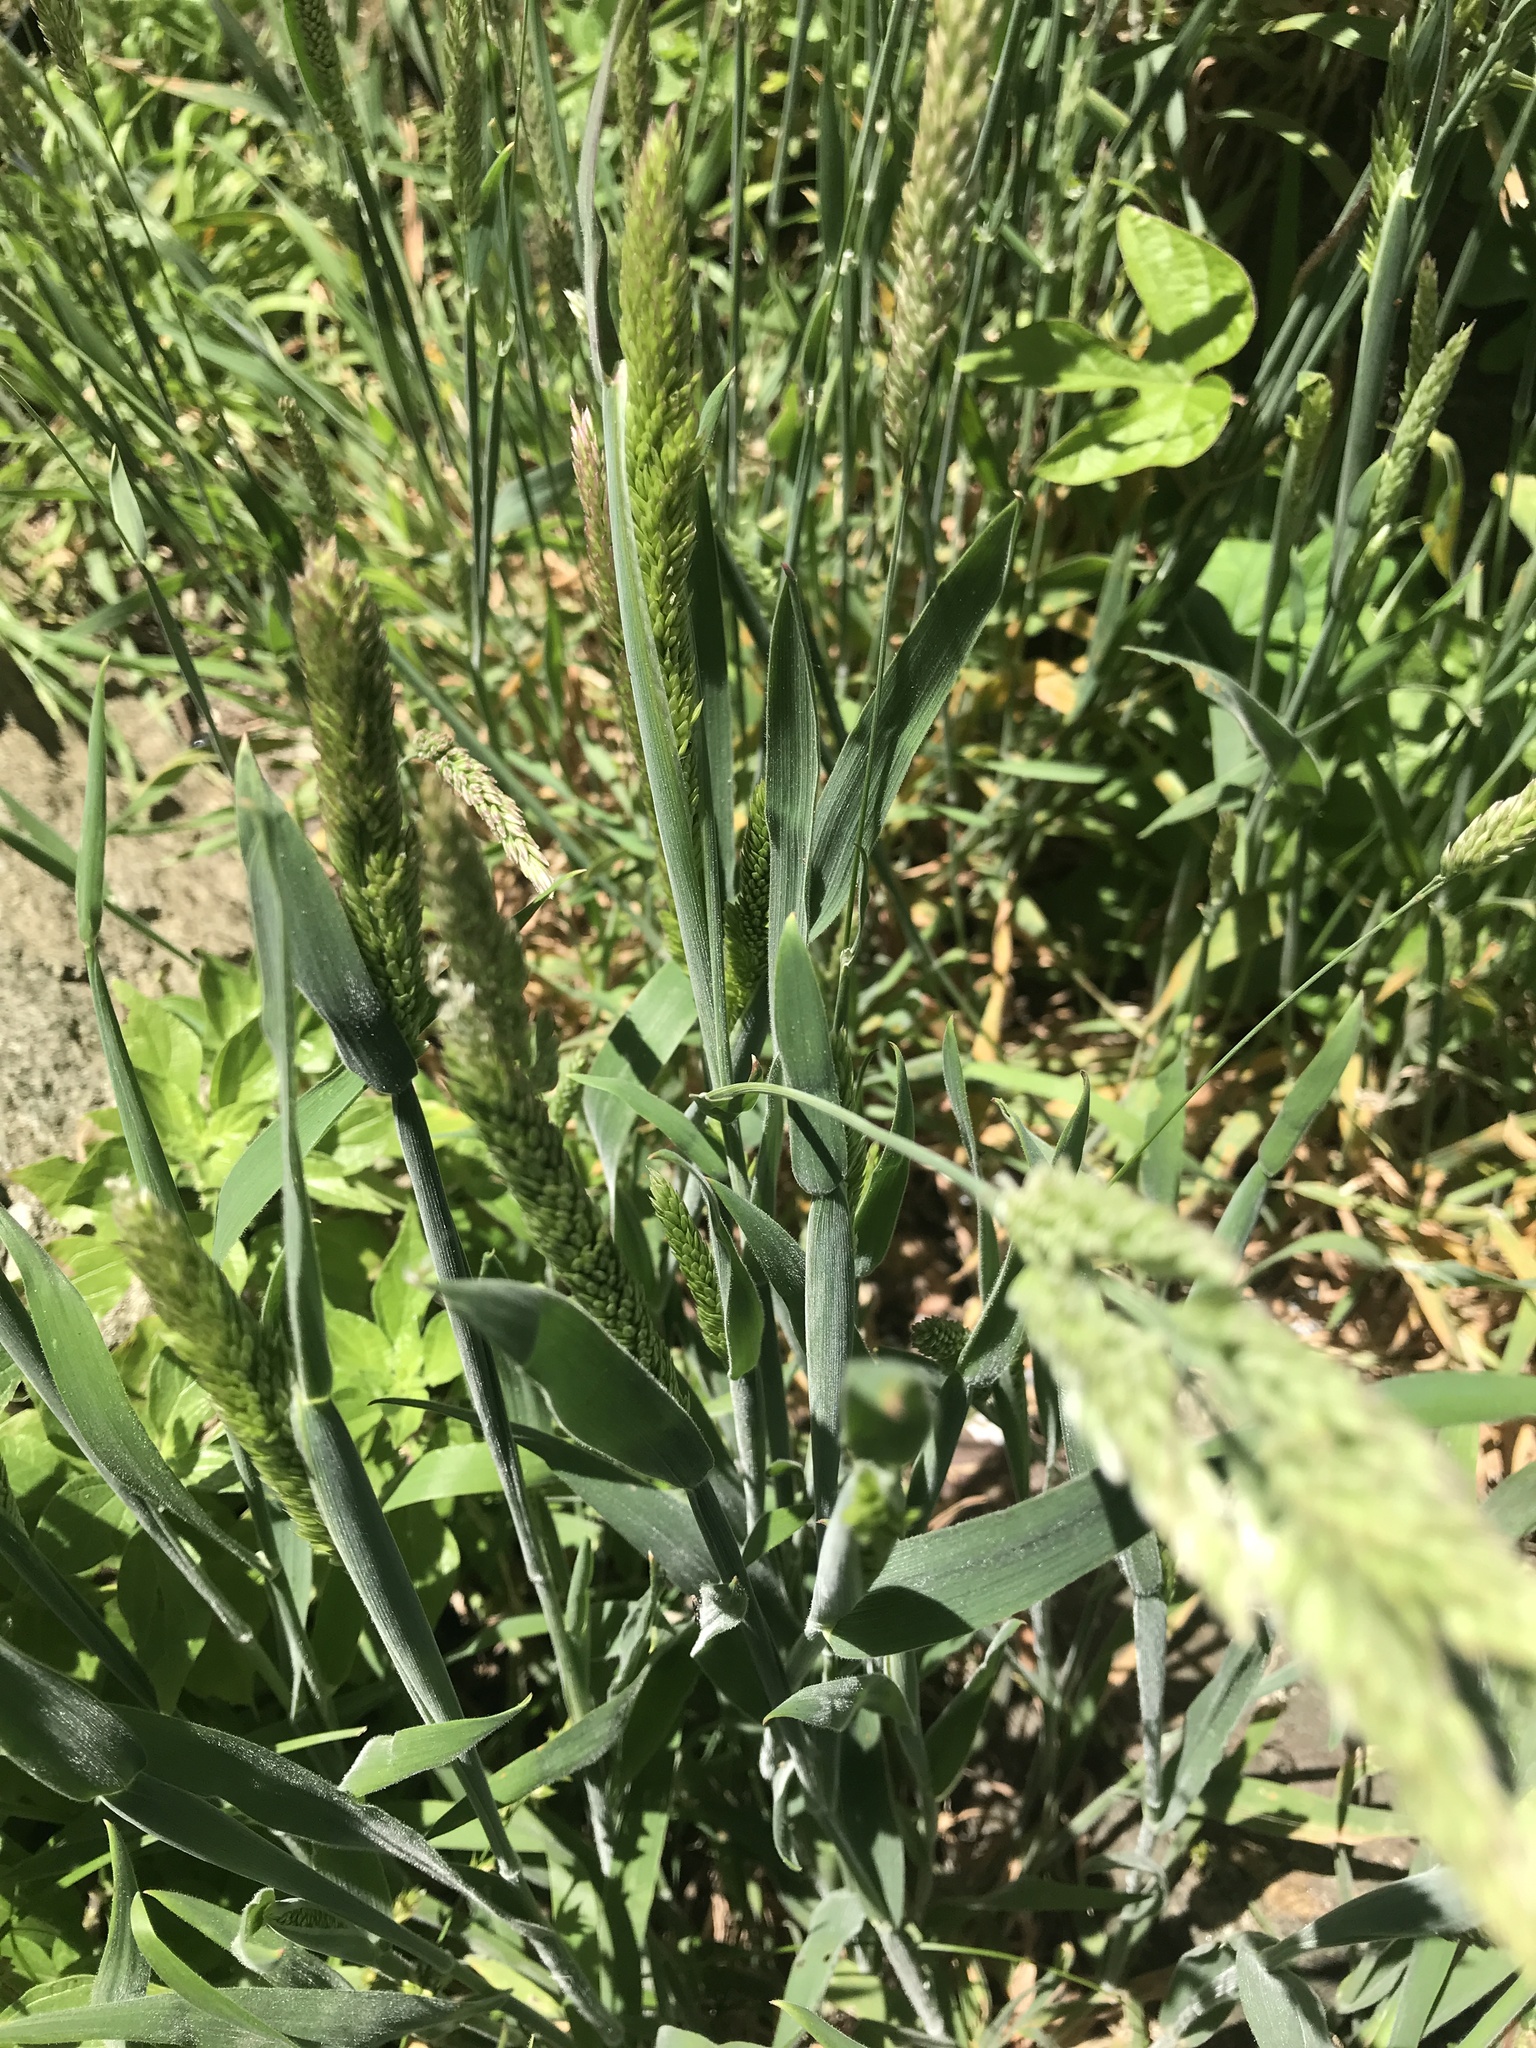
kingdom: Plantae
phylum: Tracheophyta
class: Liliopsida
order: Poales
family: Poaceae
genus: Holcus
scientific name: Holcus lanatus
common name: Yorkshire-fog
